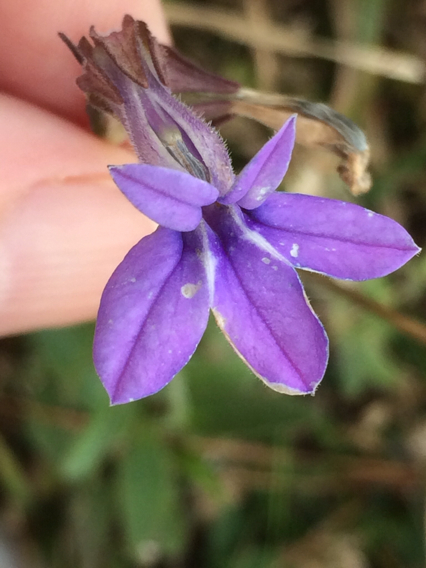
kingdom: Plantae
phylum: Tracheophyta
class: Magnoliopsida
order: Asterales
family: Campanulaceae
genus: Lobelia
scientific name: Lobelia puberula
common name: Purple dewdrop
